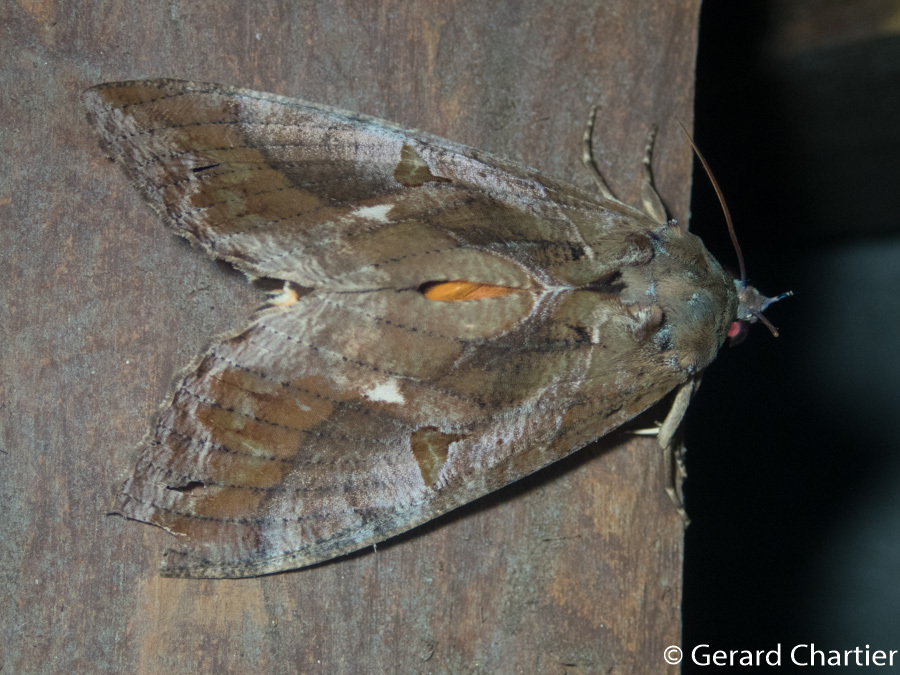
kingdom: Animalia
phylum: Arthropoda
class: Insecta
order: Lepidoptera
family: Erebidae
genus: Eudocima
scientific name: Eudocima phalonia
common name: Wasp
